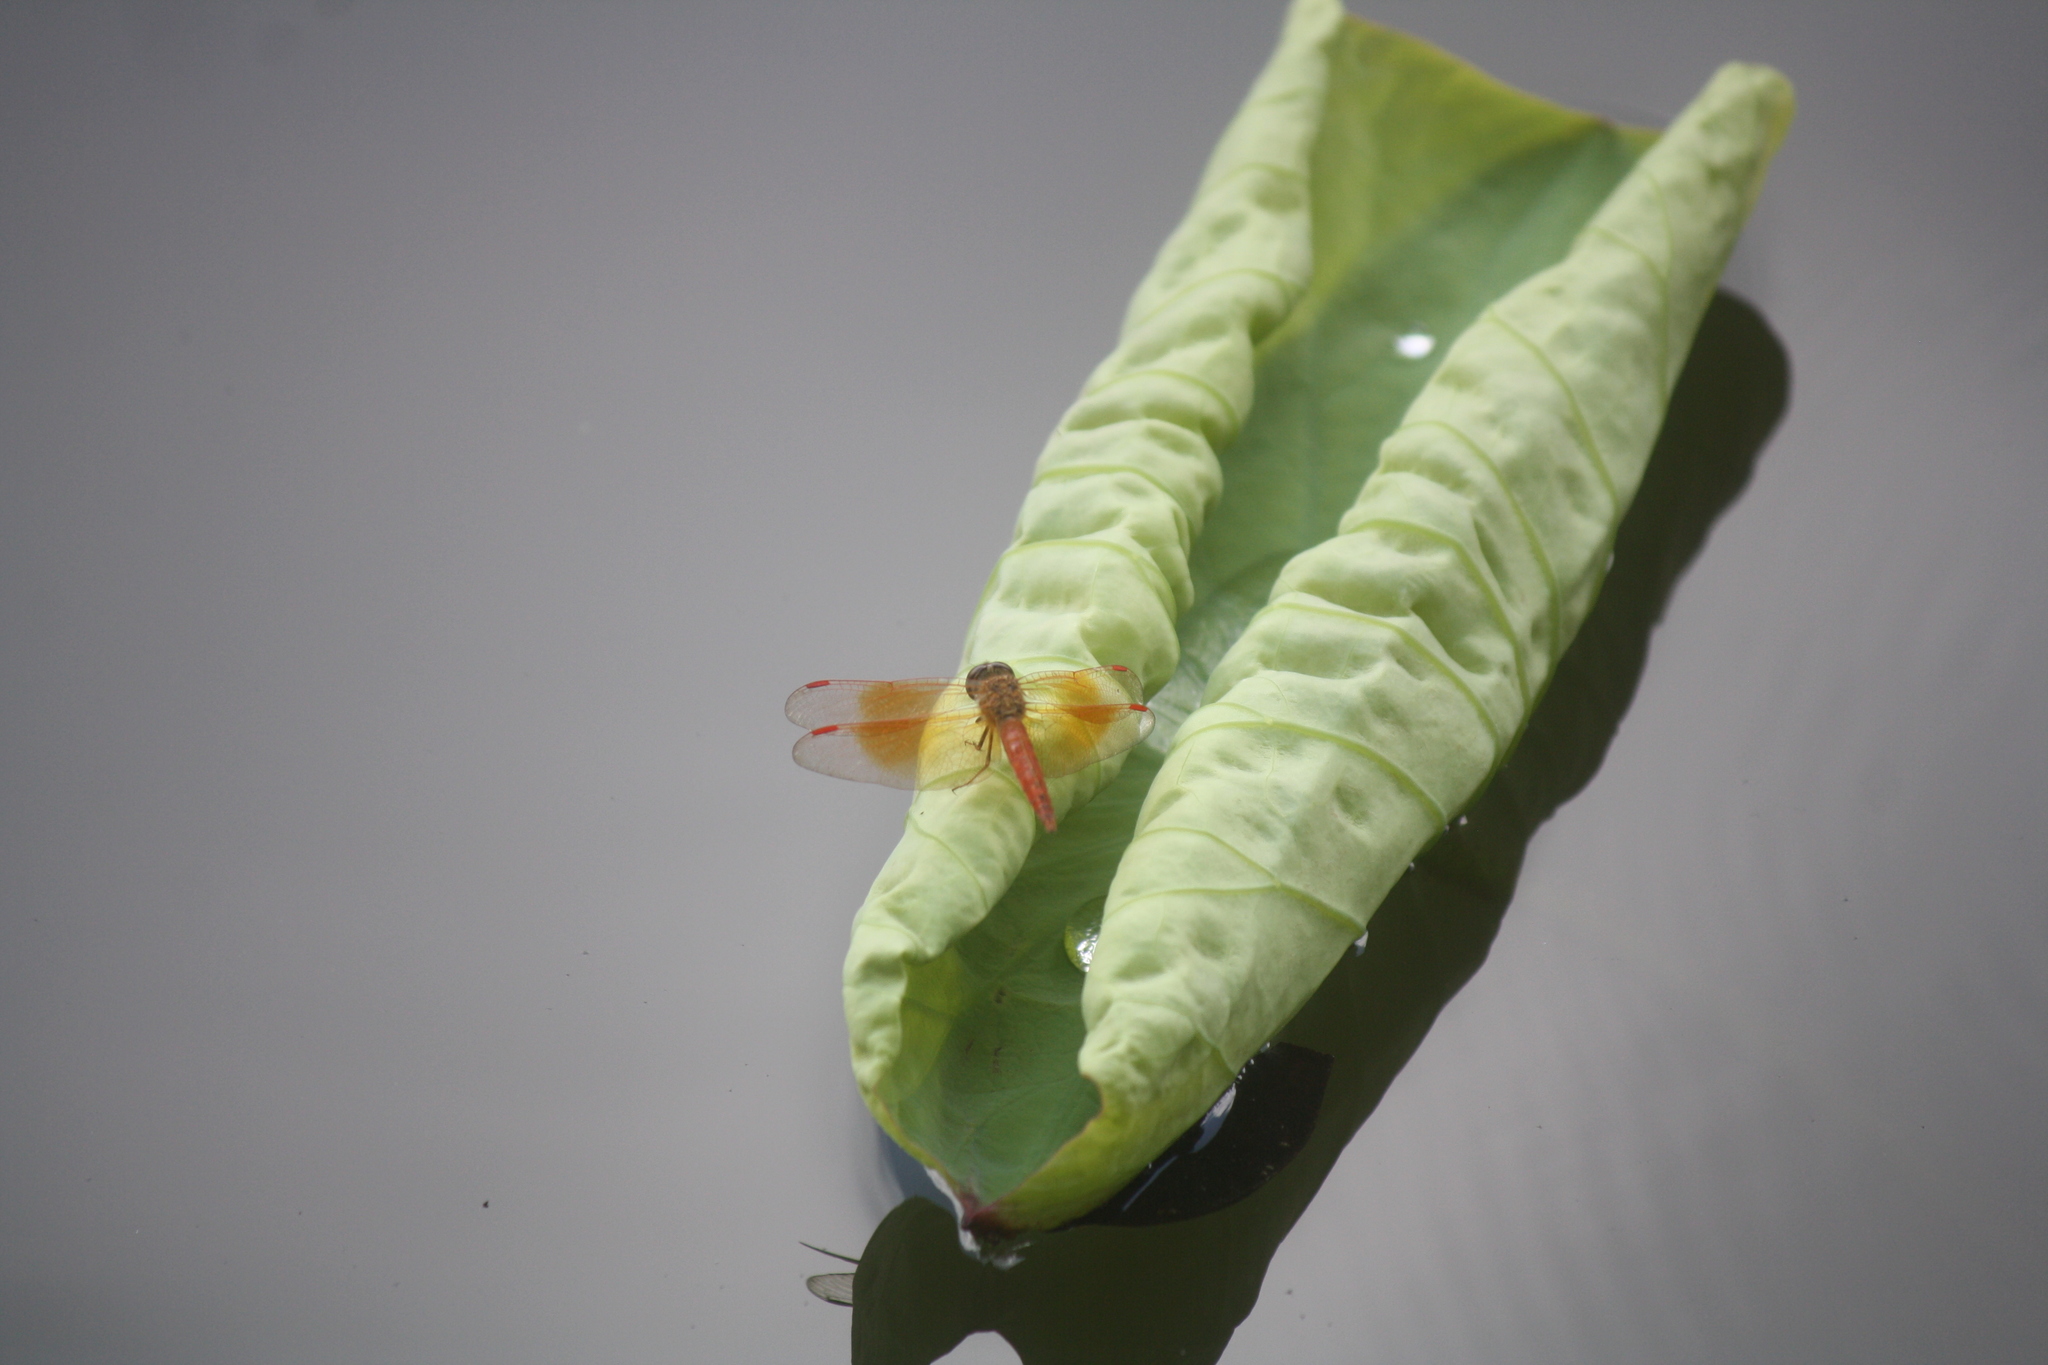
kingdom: Animalia
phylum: Arthropoda
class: Insecta
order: Odonata
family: Libellulidae
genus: Brachythemis
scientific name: Brachythemis contaminata
